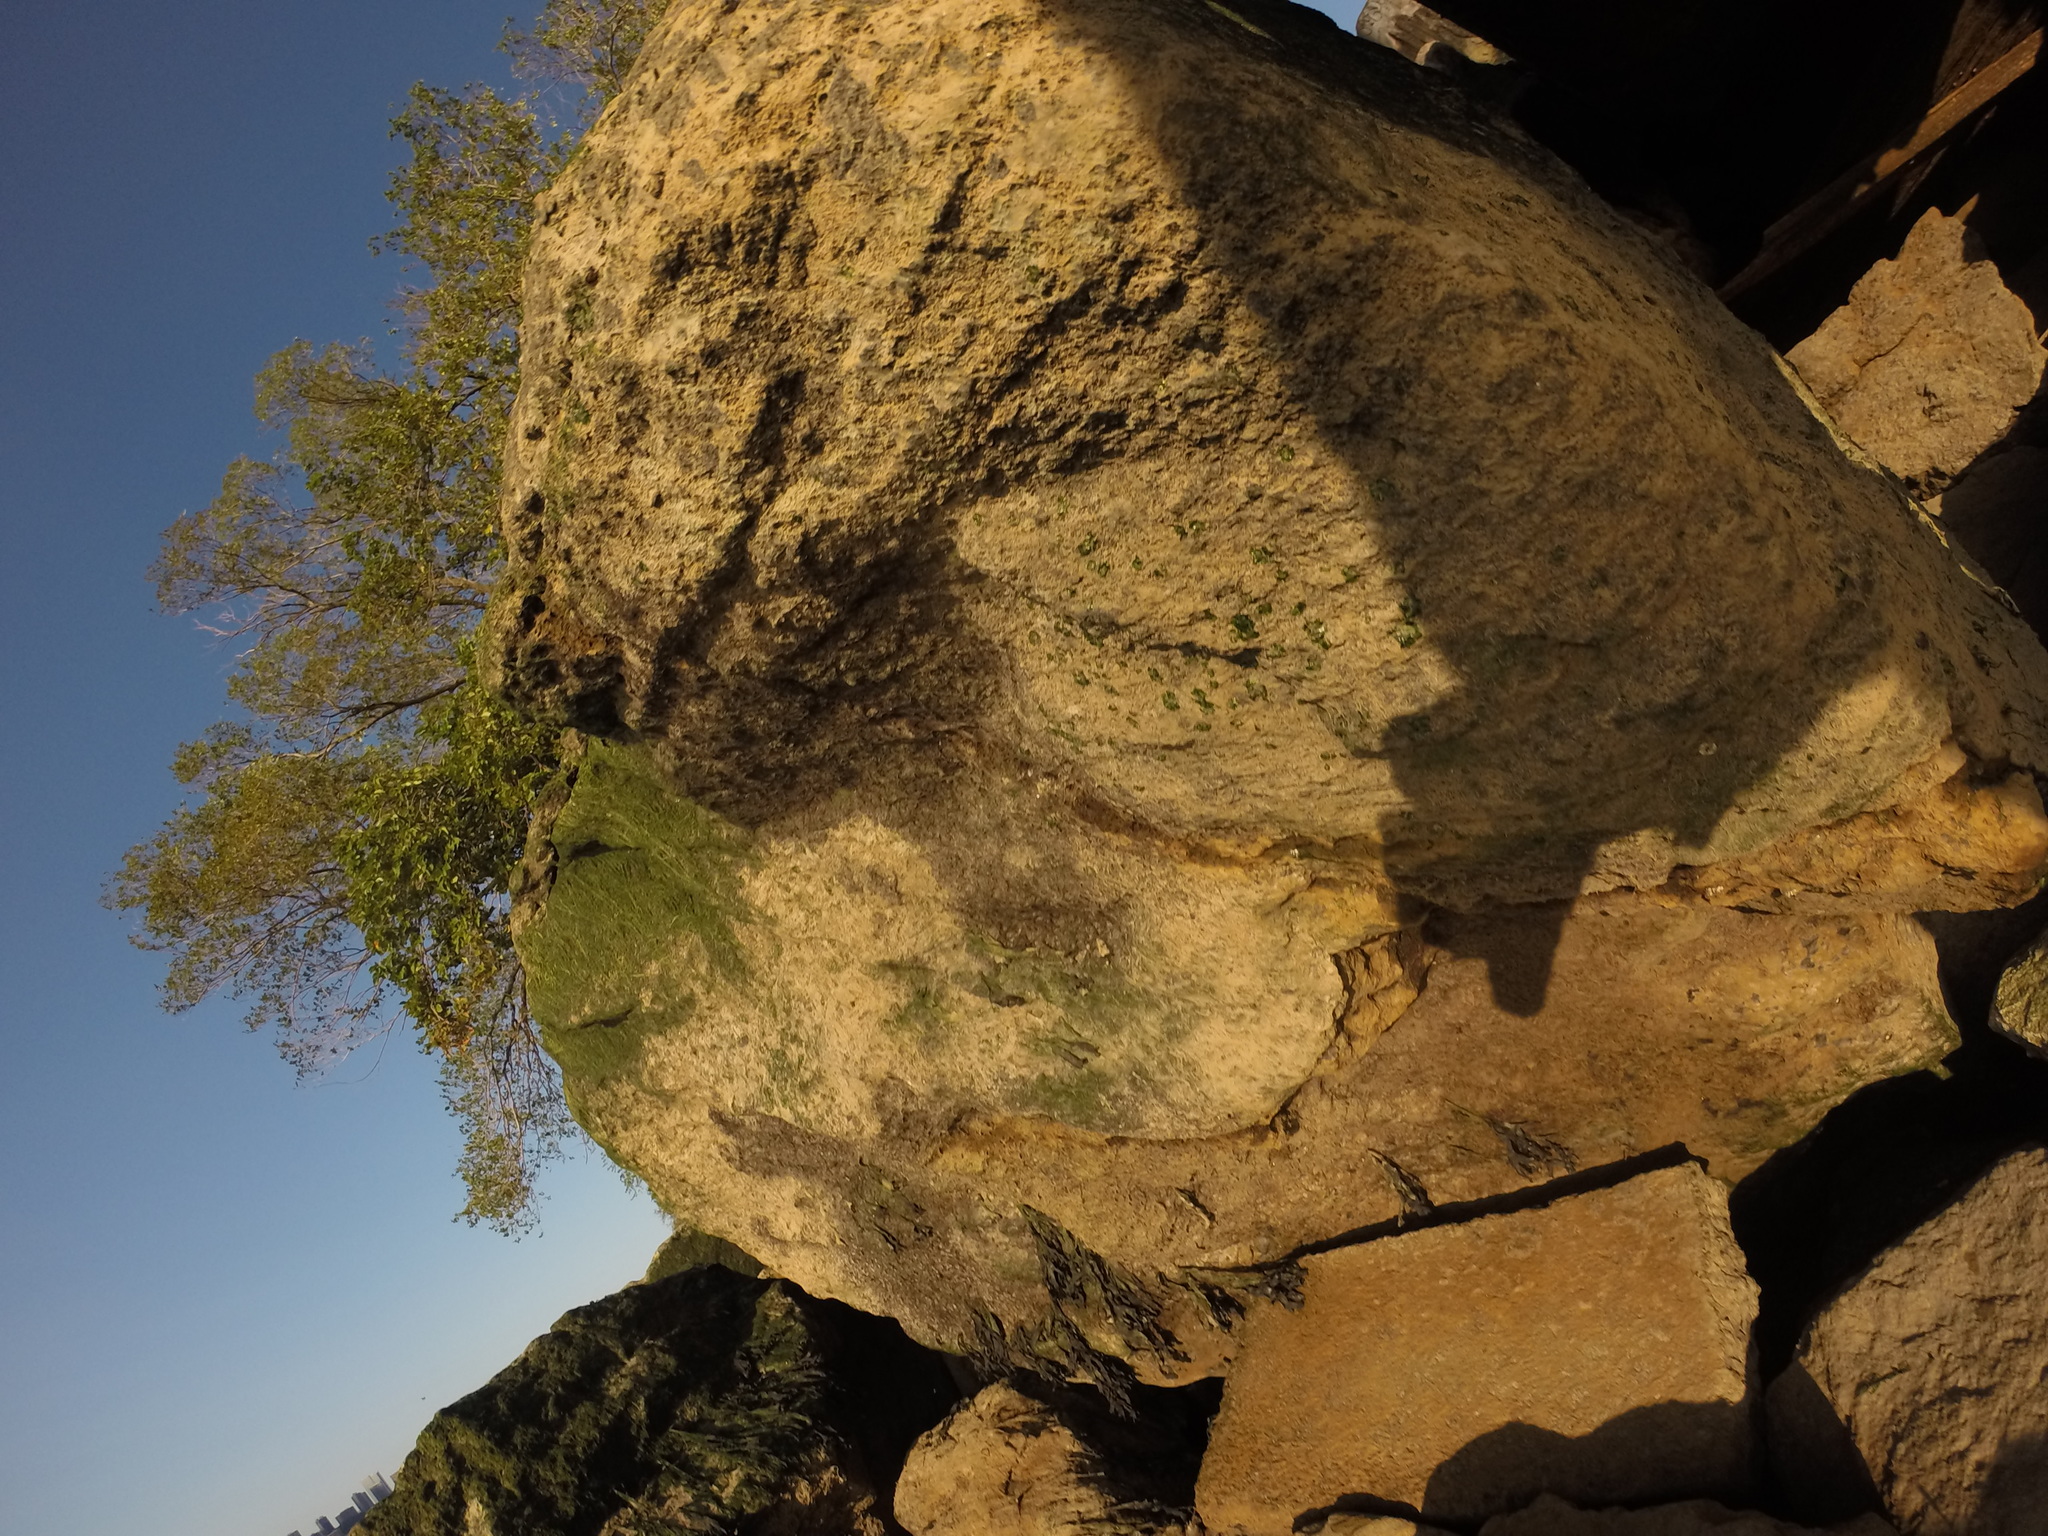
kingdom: Animalia
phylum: Mollusca
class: Bivalvia
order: Mytilida
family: Mytilidae
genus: Geukensia
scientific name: Geukensia demissa
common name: Ribbed mussel
